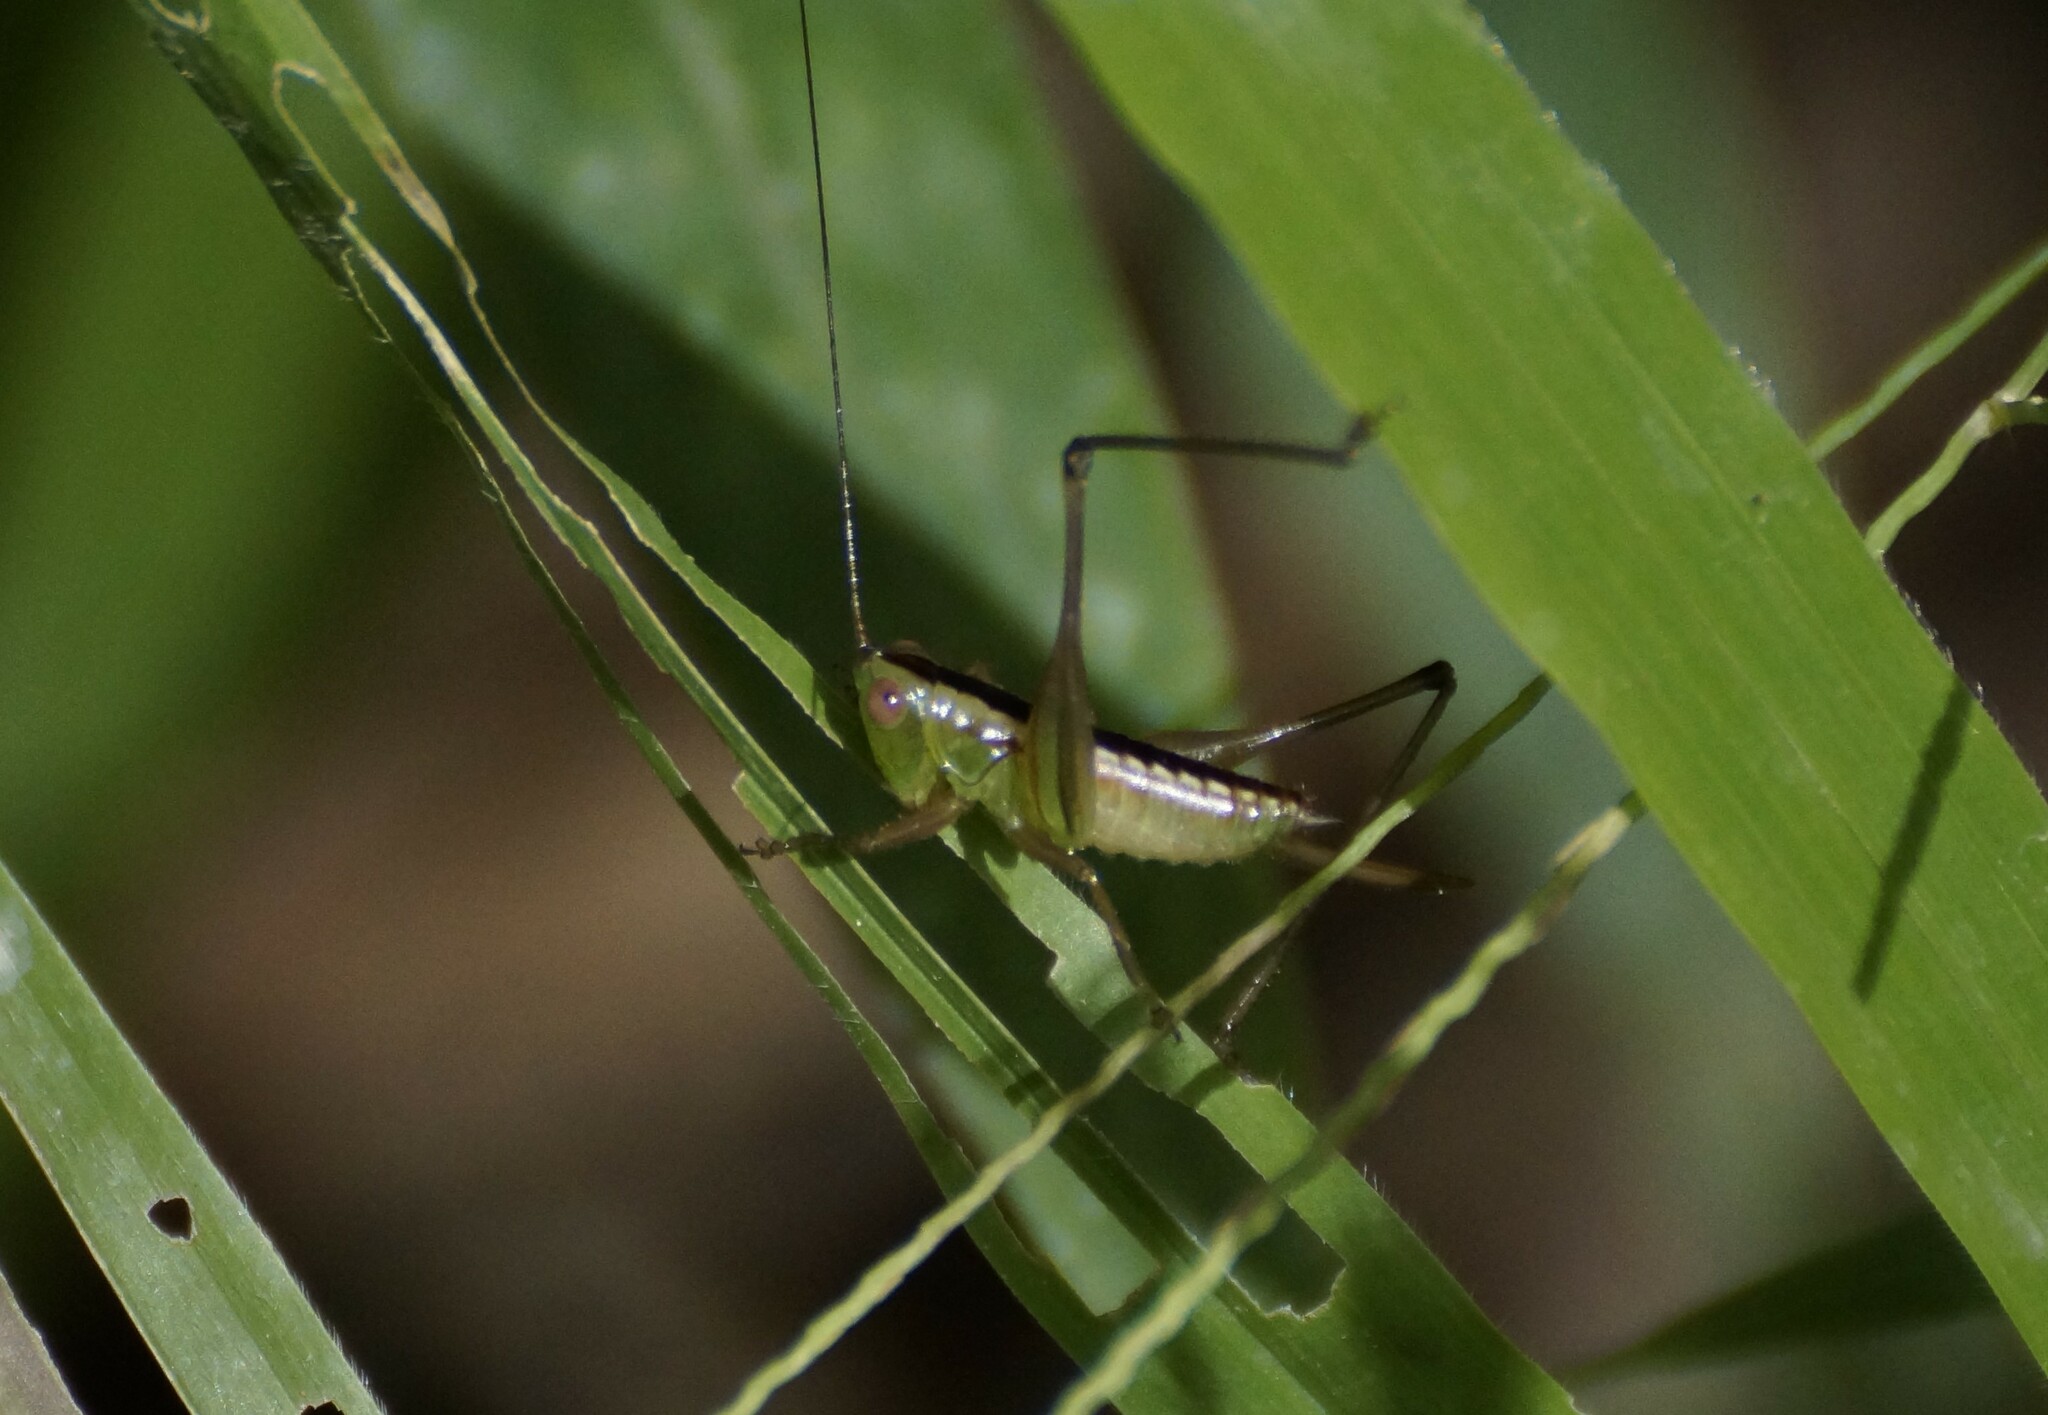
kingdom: Animalia
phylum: Arthropoda
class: Insecta
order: Orthoptera
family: Tettigoniidae
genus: Conocephalus
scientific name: Conocephalus semivittatus
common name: Blackish meadow katydid
